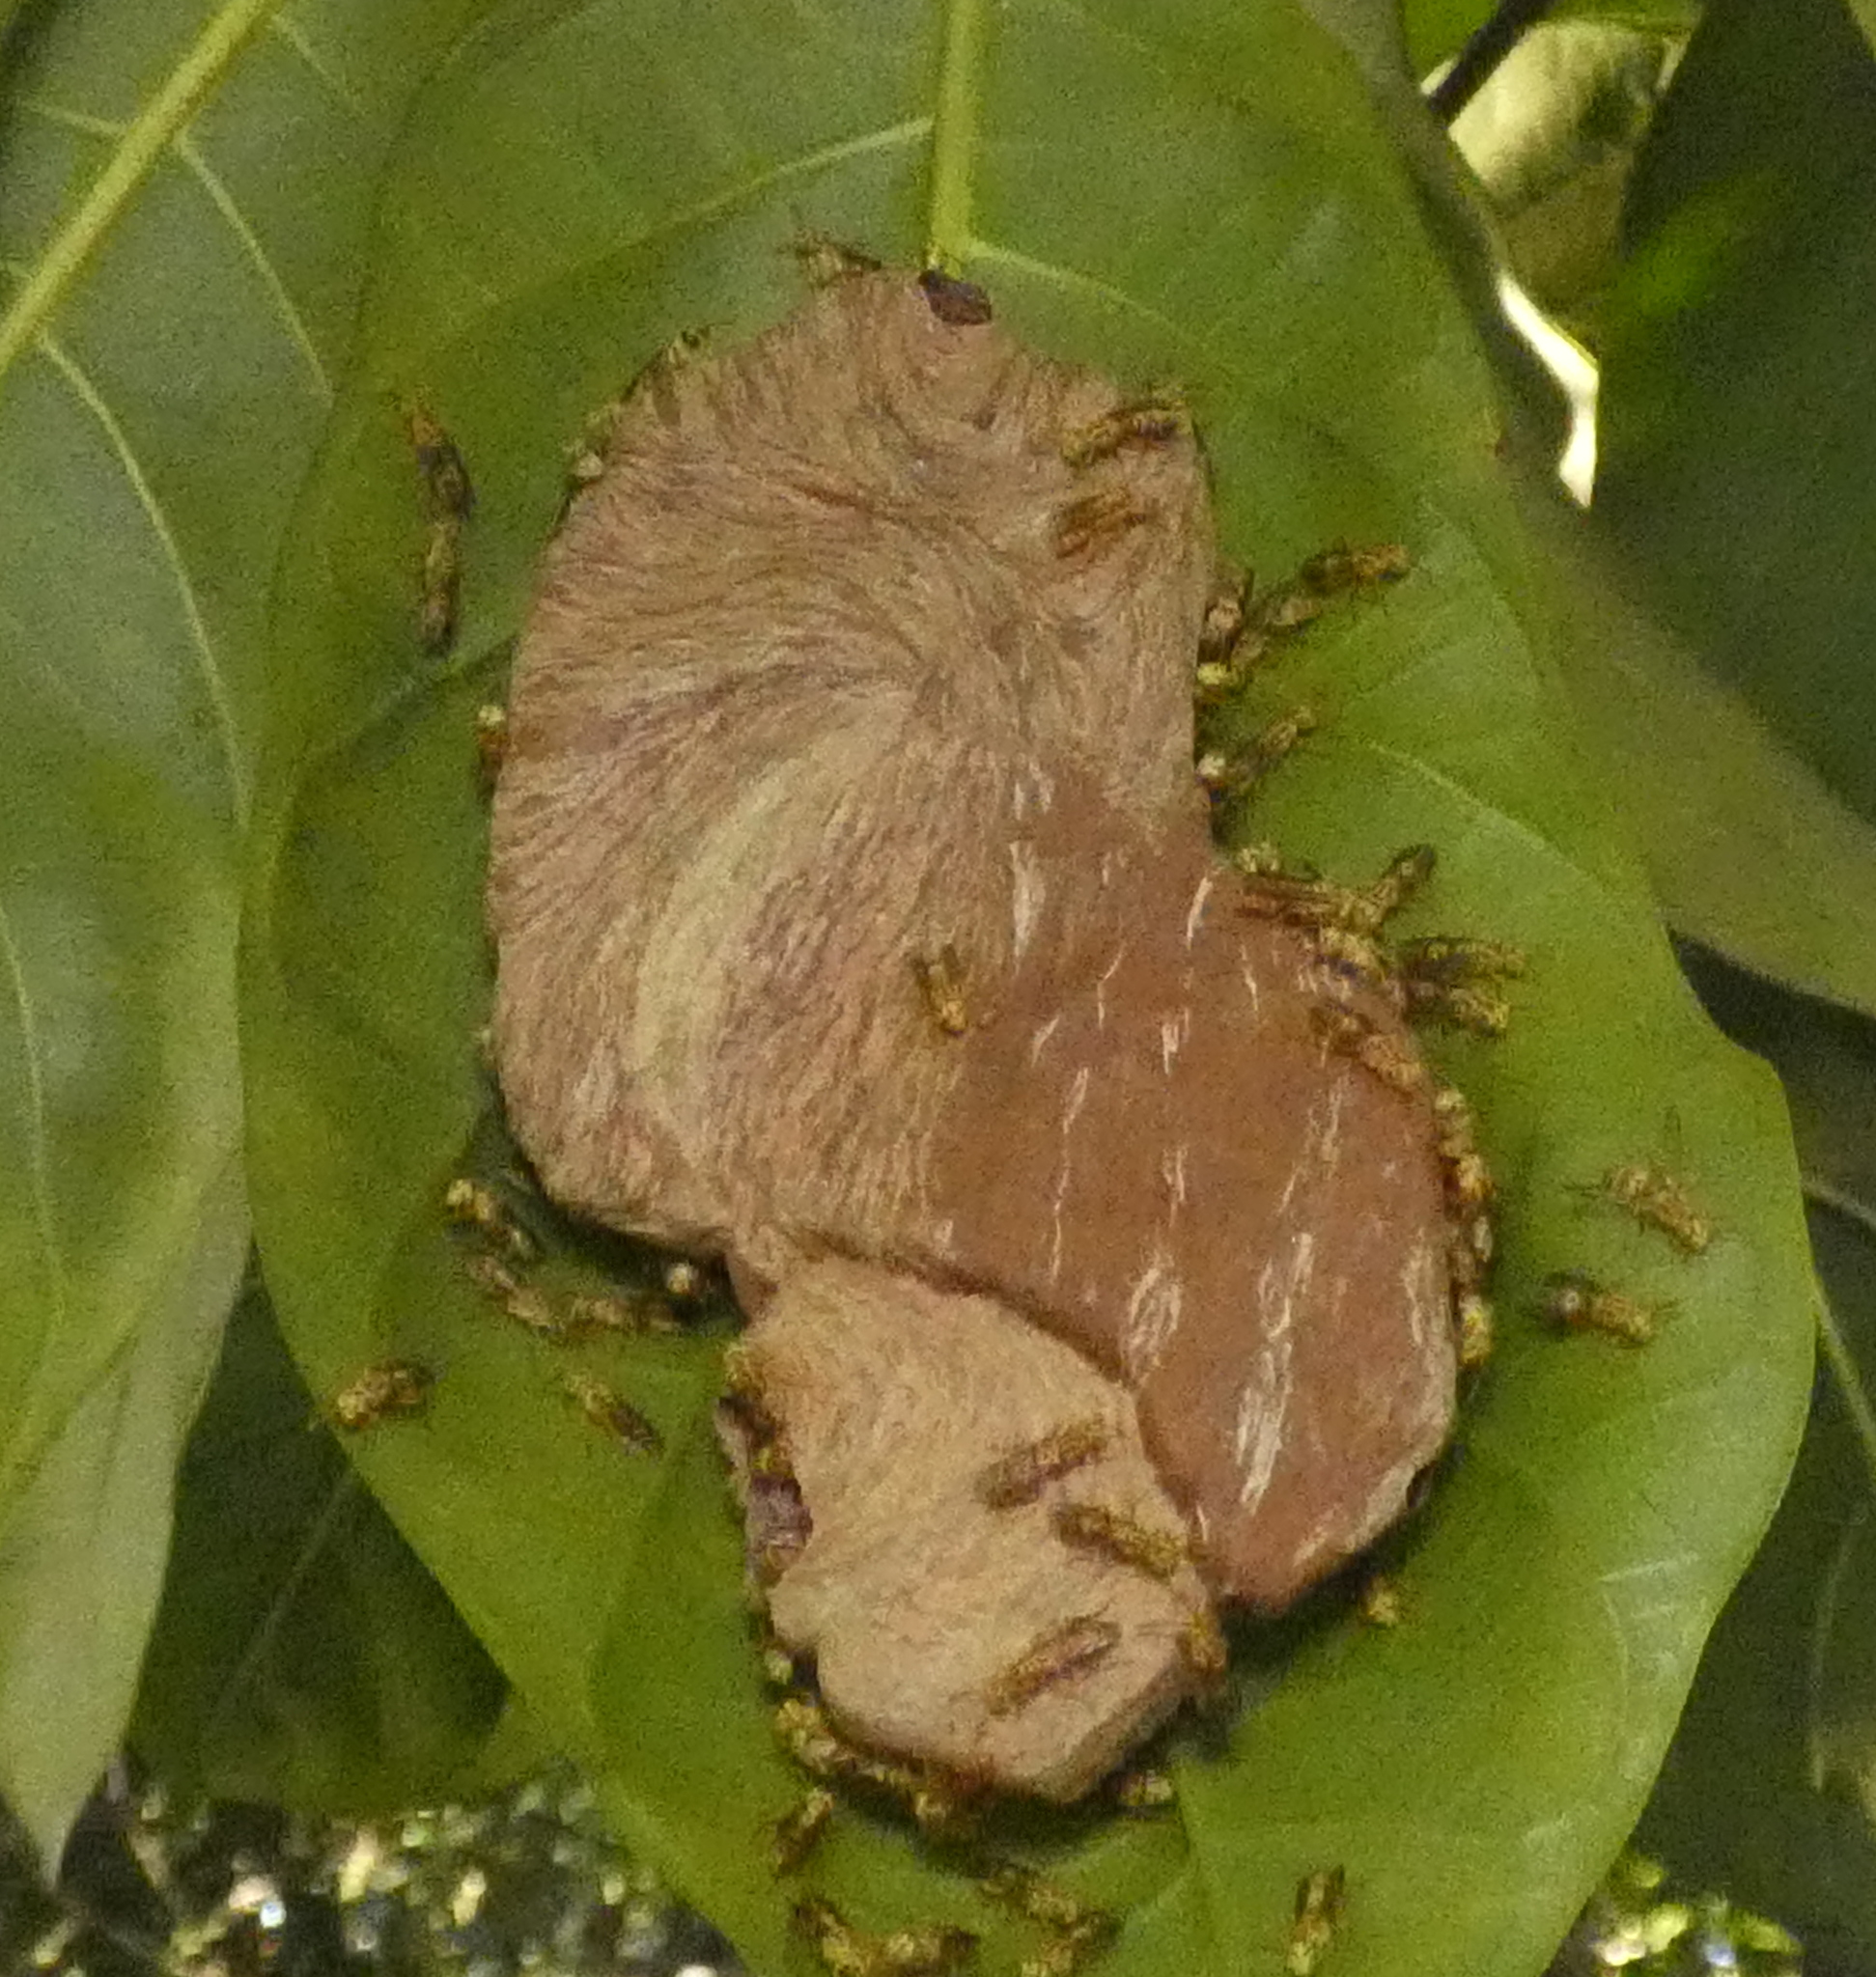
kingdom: Animalia
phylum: Arthropoda
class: Insecta
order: Hymenoptera
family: Vespidae
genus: Protopolybia
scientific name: Protopolybia potiguara
